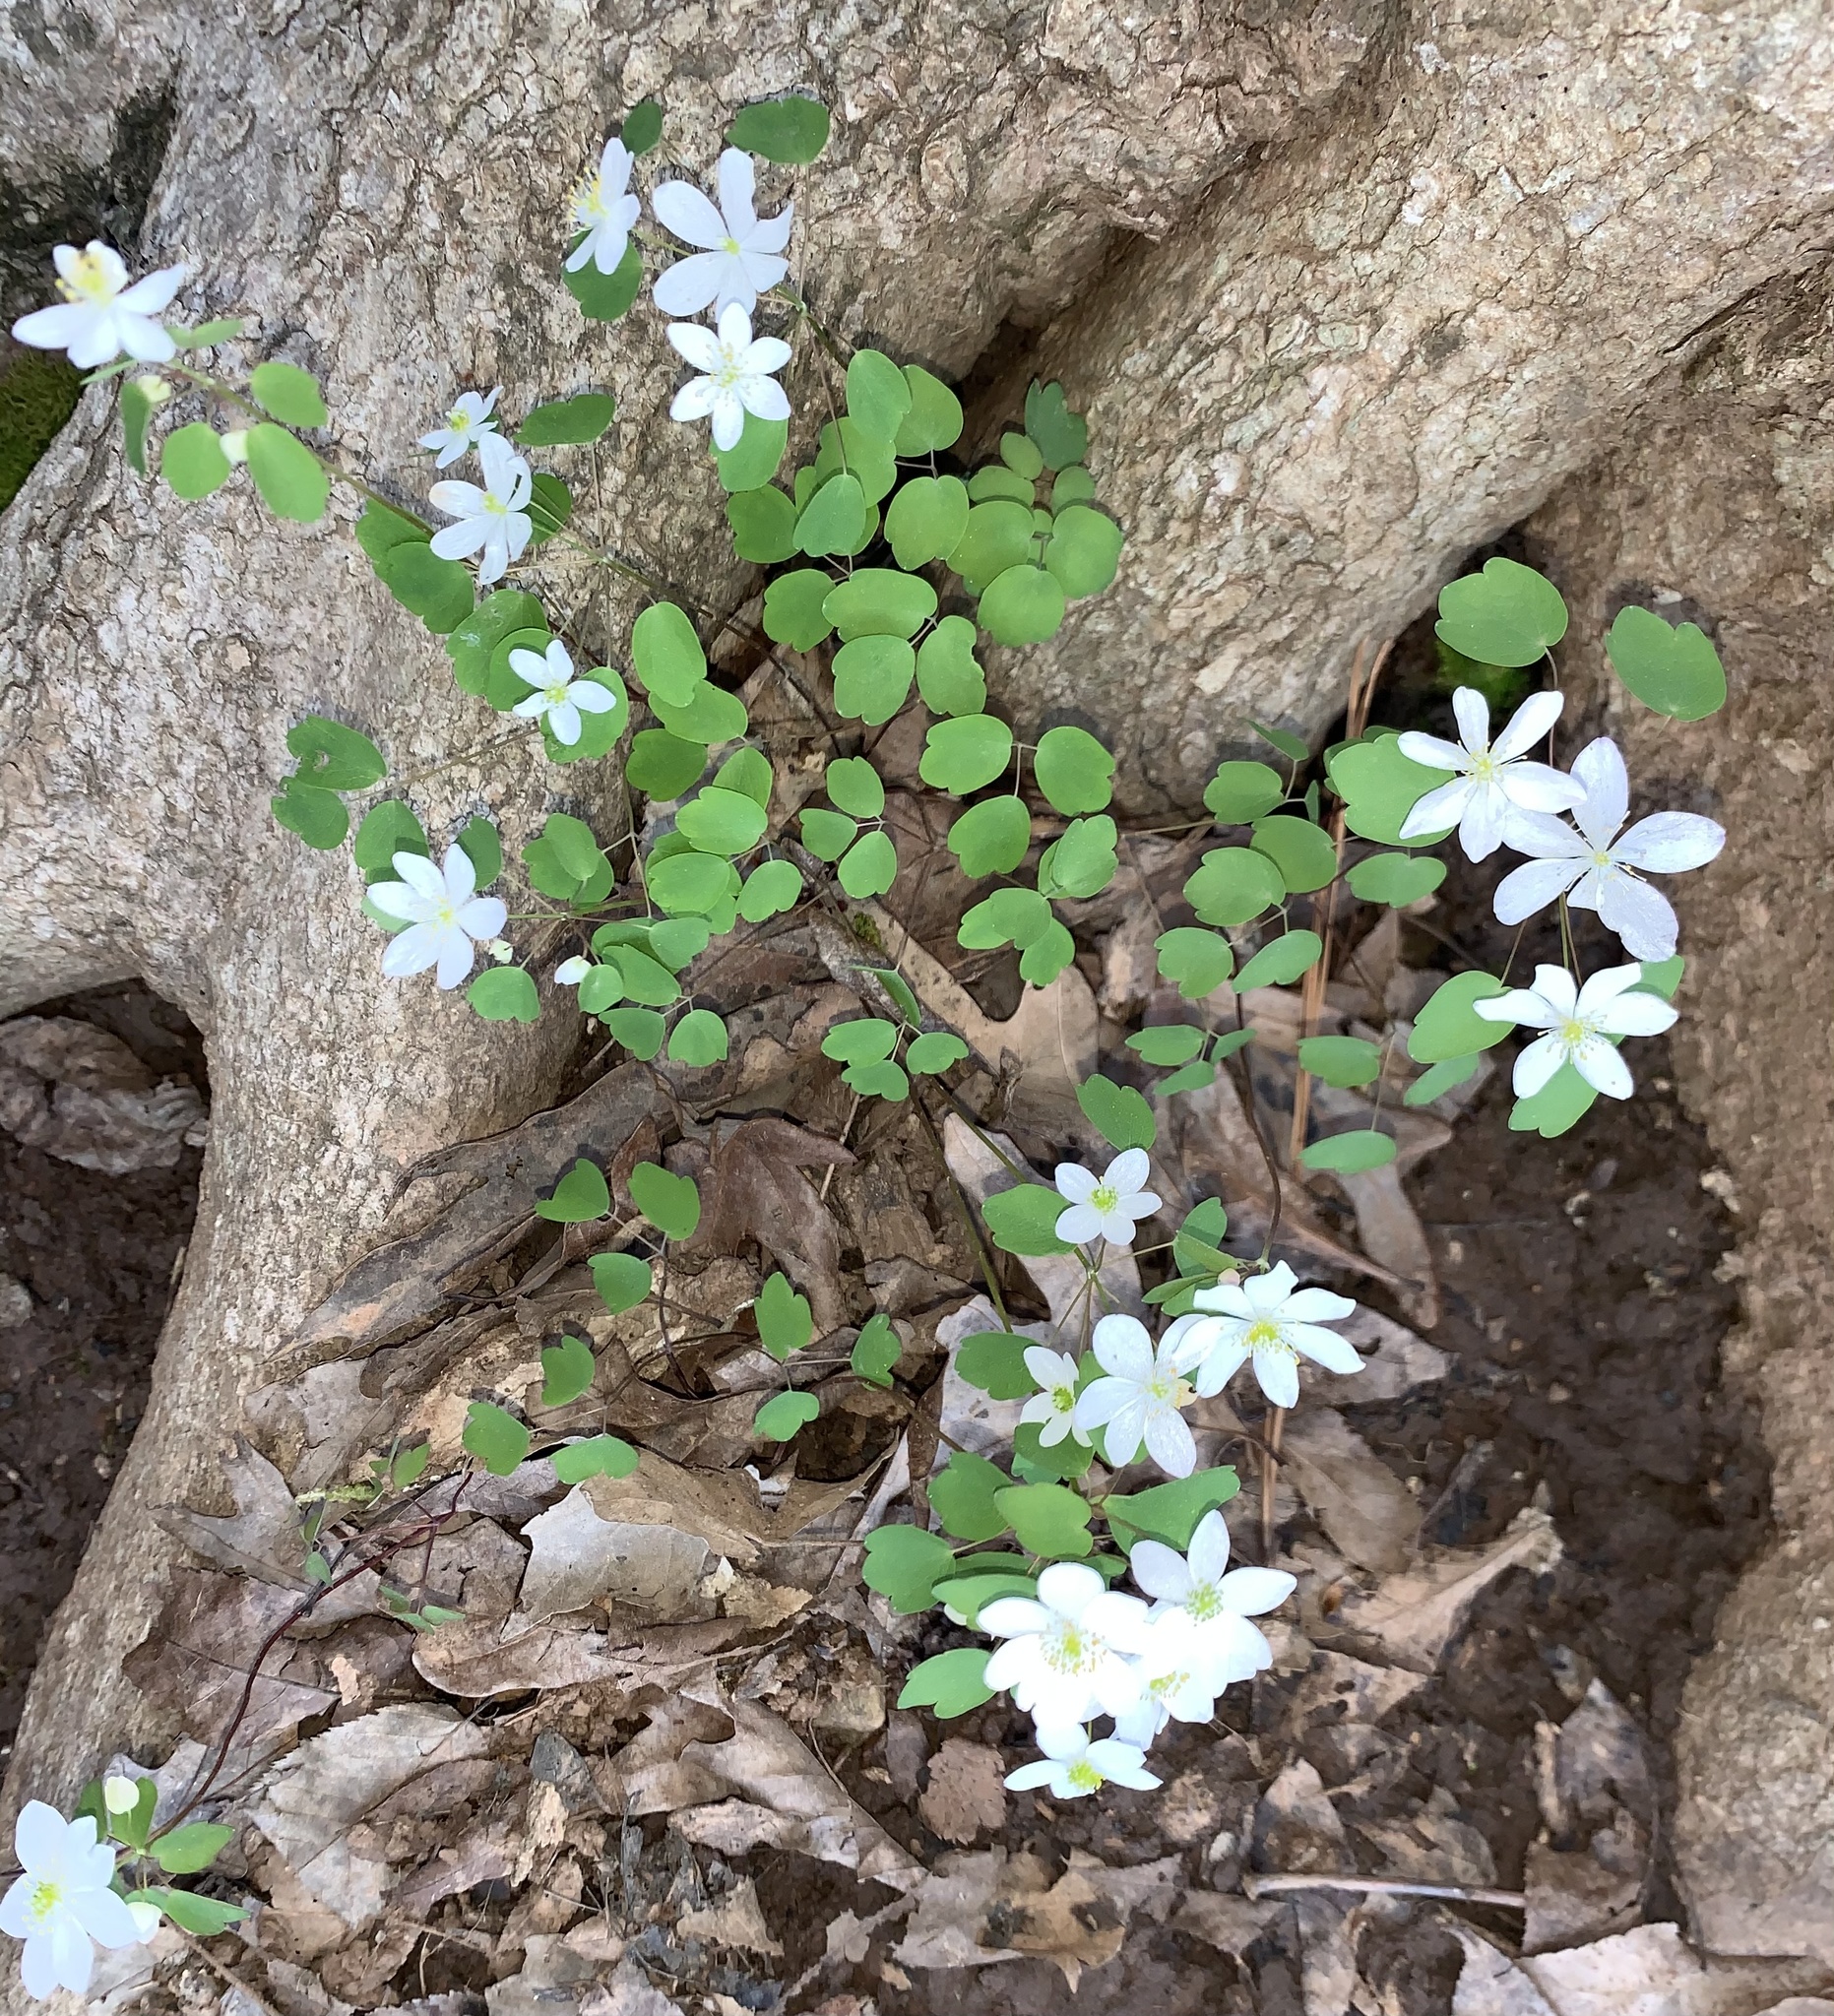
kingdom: Plantae
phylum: Tracheophyta
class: Magnoliopsida
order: Ranunculales
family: Ranunculaceae
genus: Thalictrum
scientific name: Thalictrum thalictroides
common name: Rue-anemone
